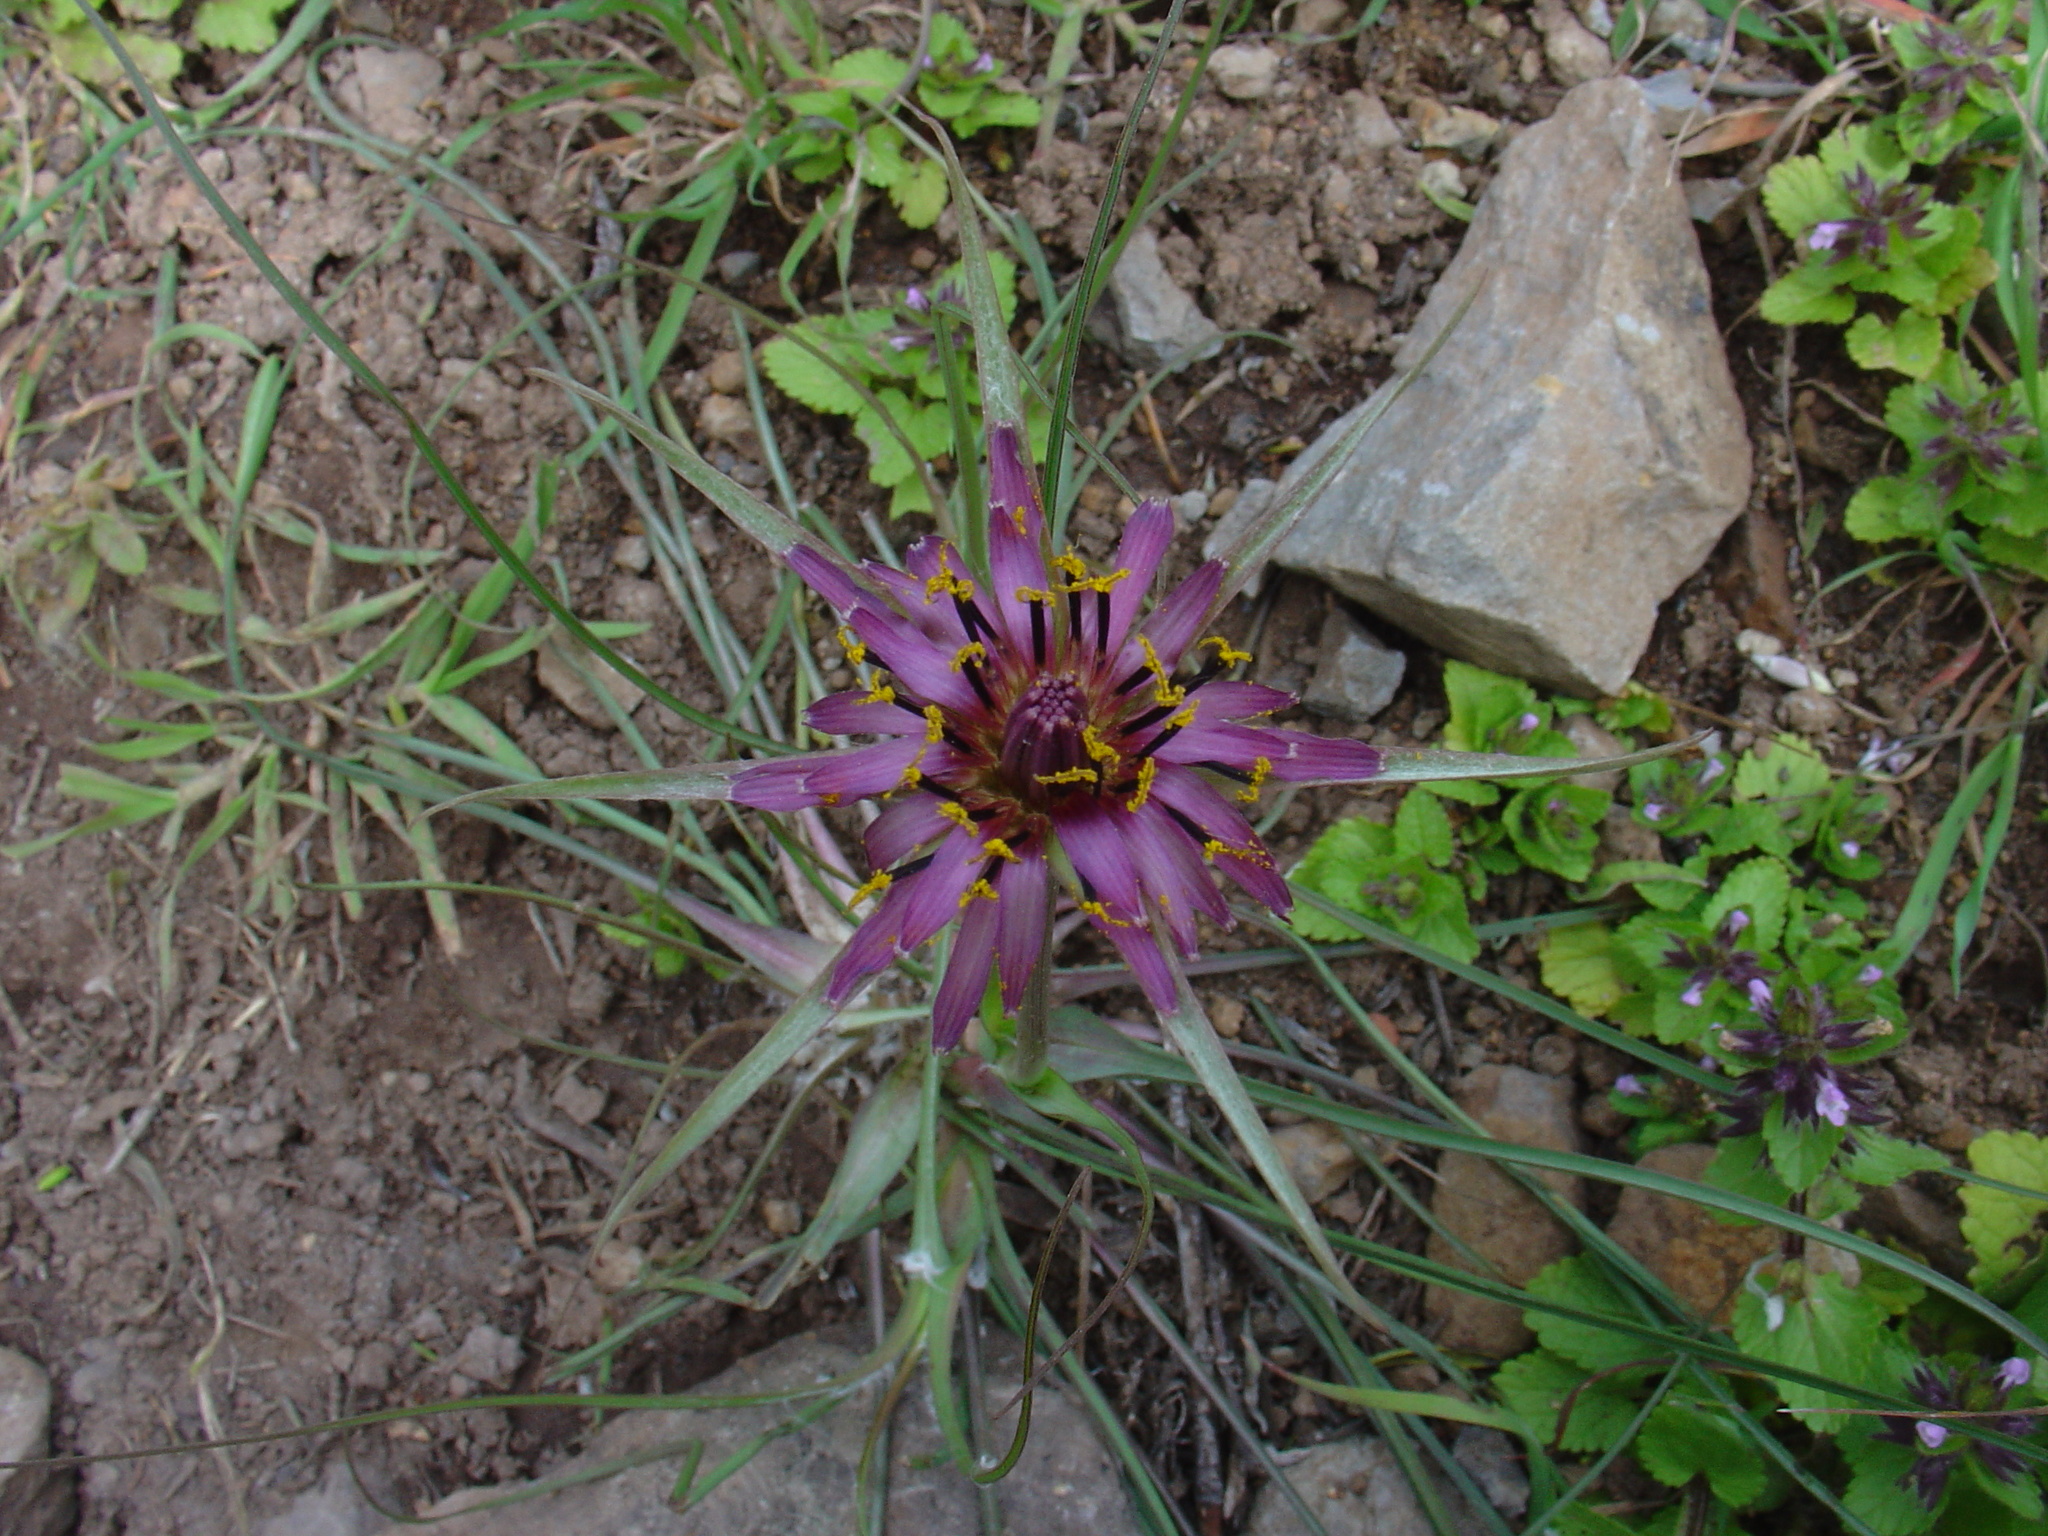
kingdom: Plantae
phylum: Tracheophyta
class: Magnoliopsida
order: Asterales
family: Asteraceae
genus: Tragopogon
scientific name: Tragopogon porrifolius
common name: Salsify
